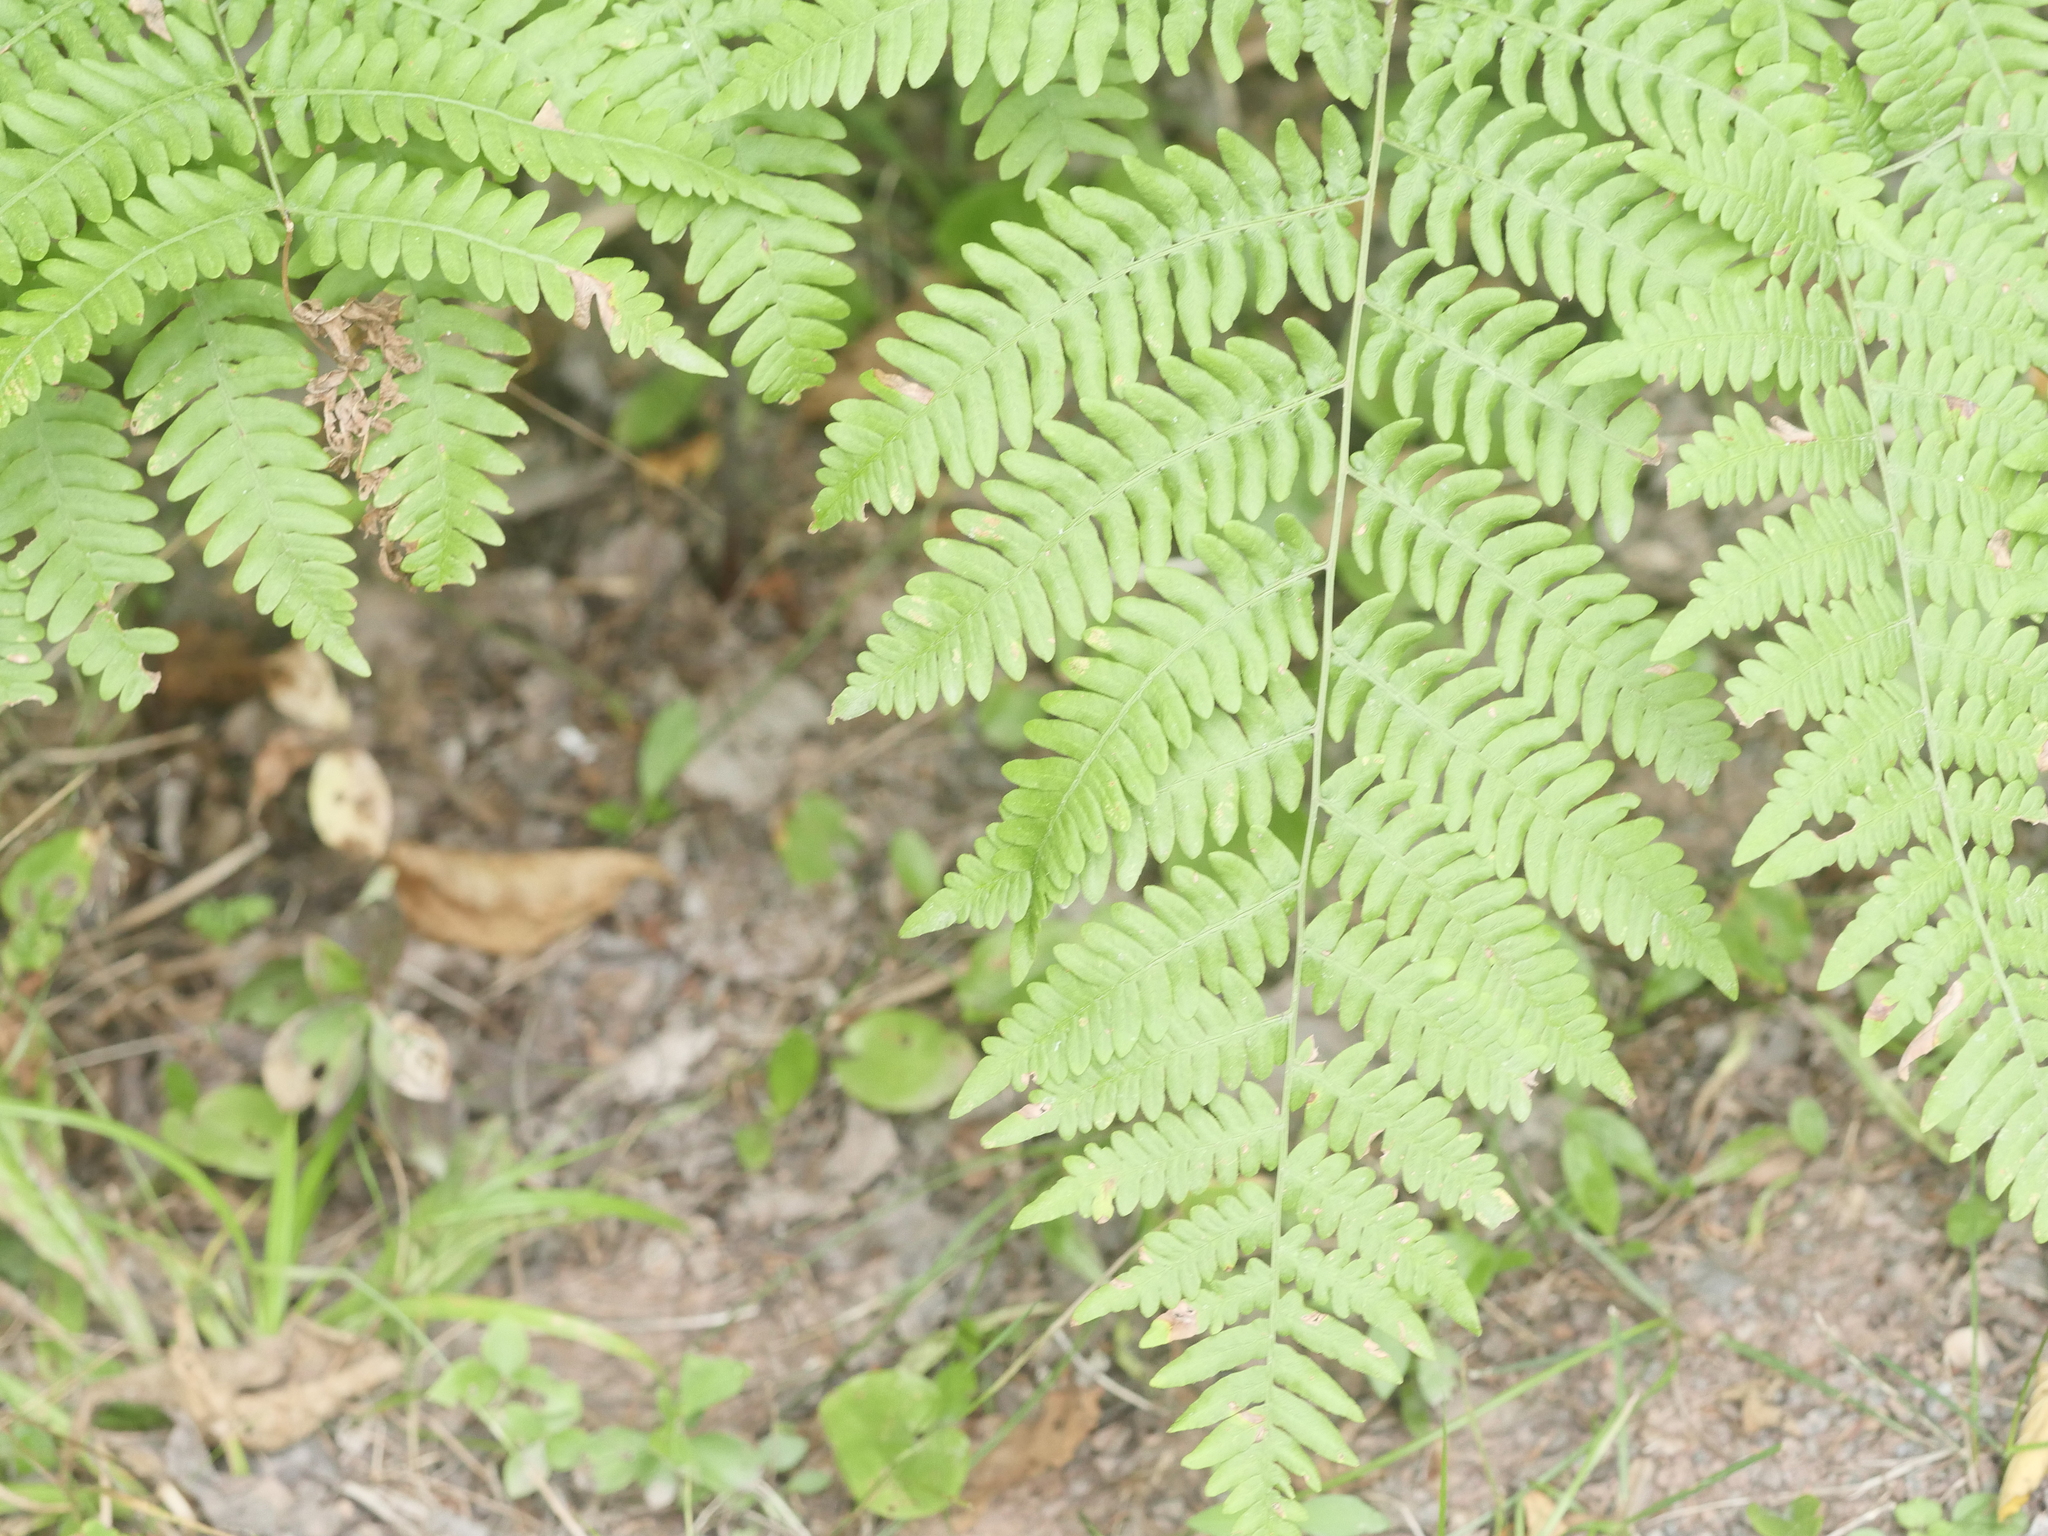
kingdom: Plantae
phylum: Tracheophyta
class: Polypodiopsida
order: Polypodiales
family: Dennstaedtiaceae
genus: Pteridium
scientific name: Pteridium aquilinum
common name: Bracken
